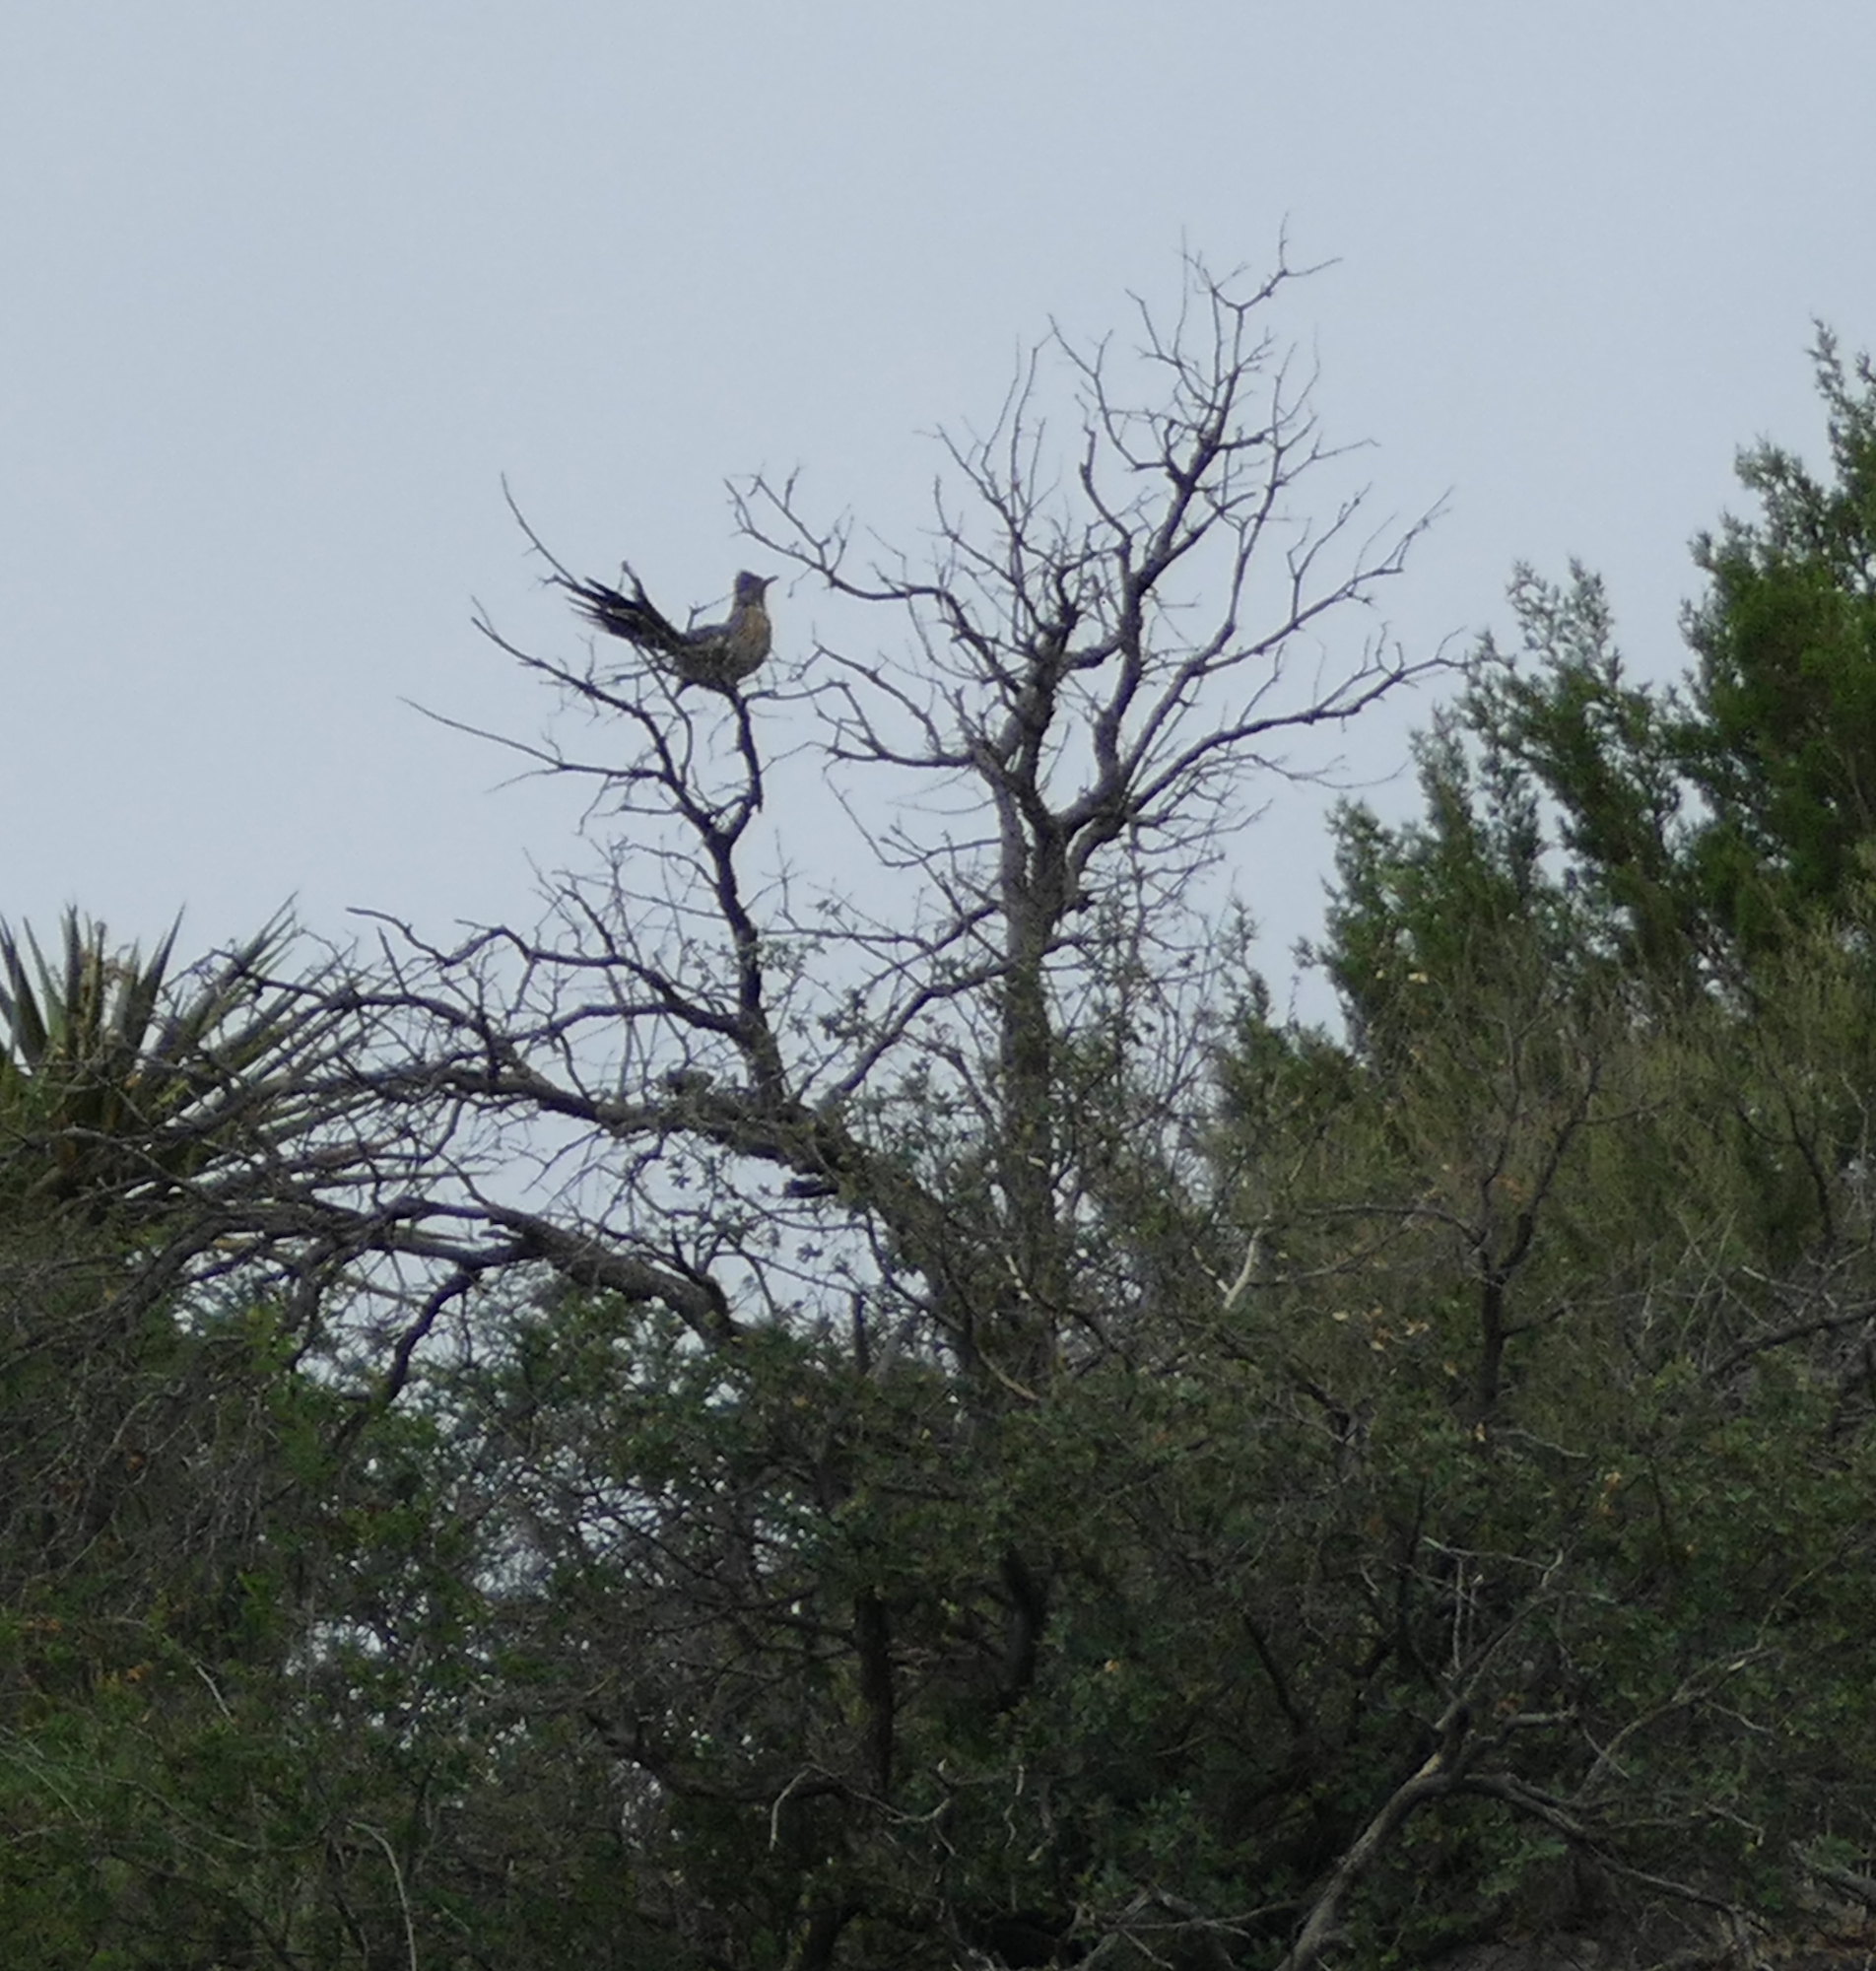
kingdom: Animalia
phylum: Chordata
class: Aves
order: Cuculiformes
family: Cuculidae
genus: Geococcyx
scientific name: Geococcyx californianus
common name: Greater roadrunner
